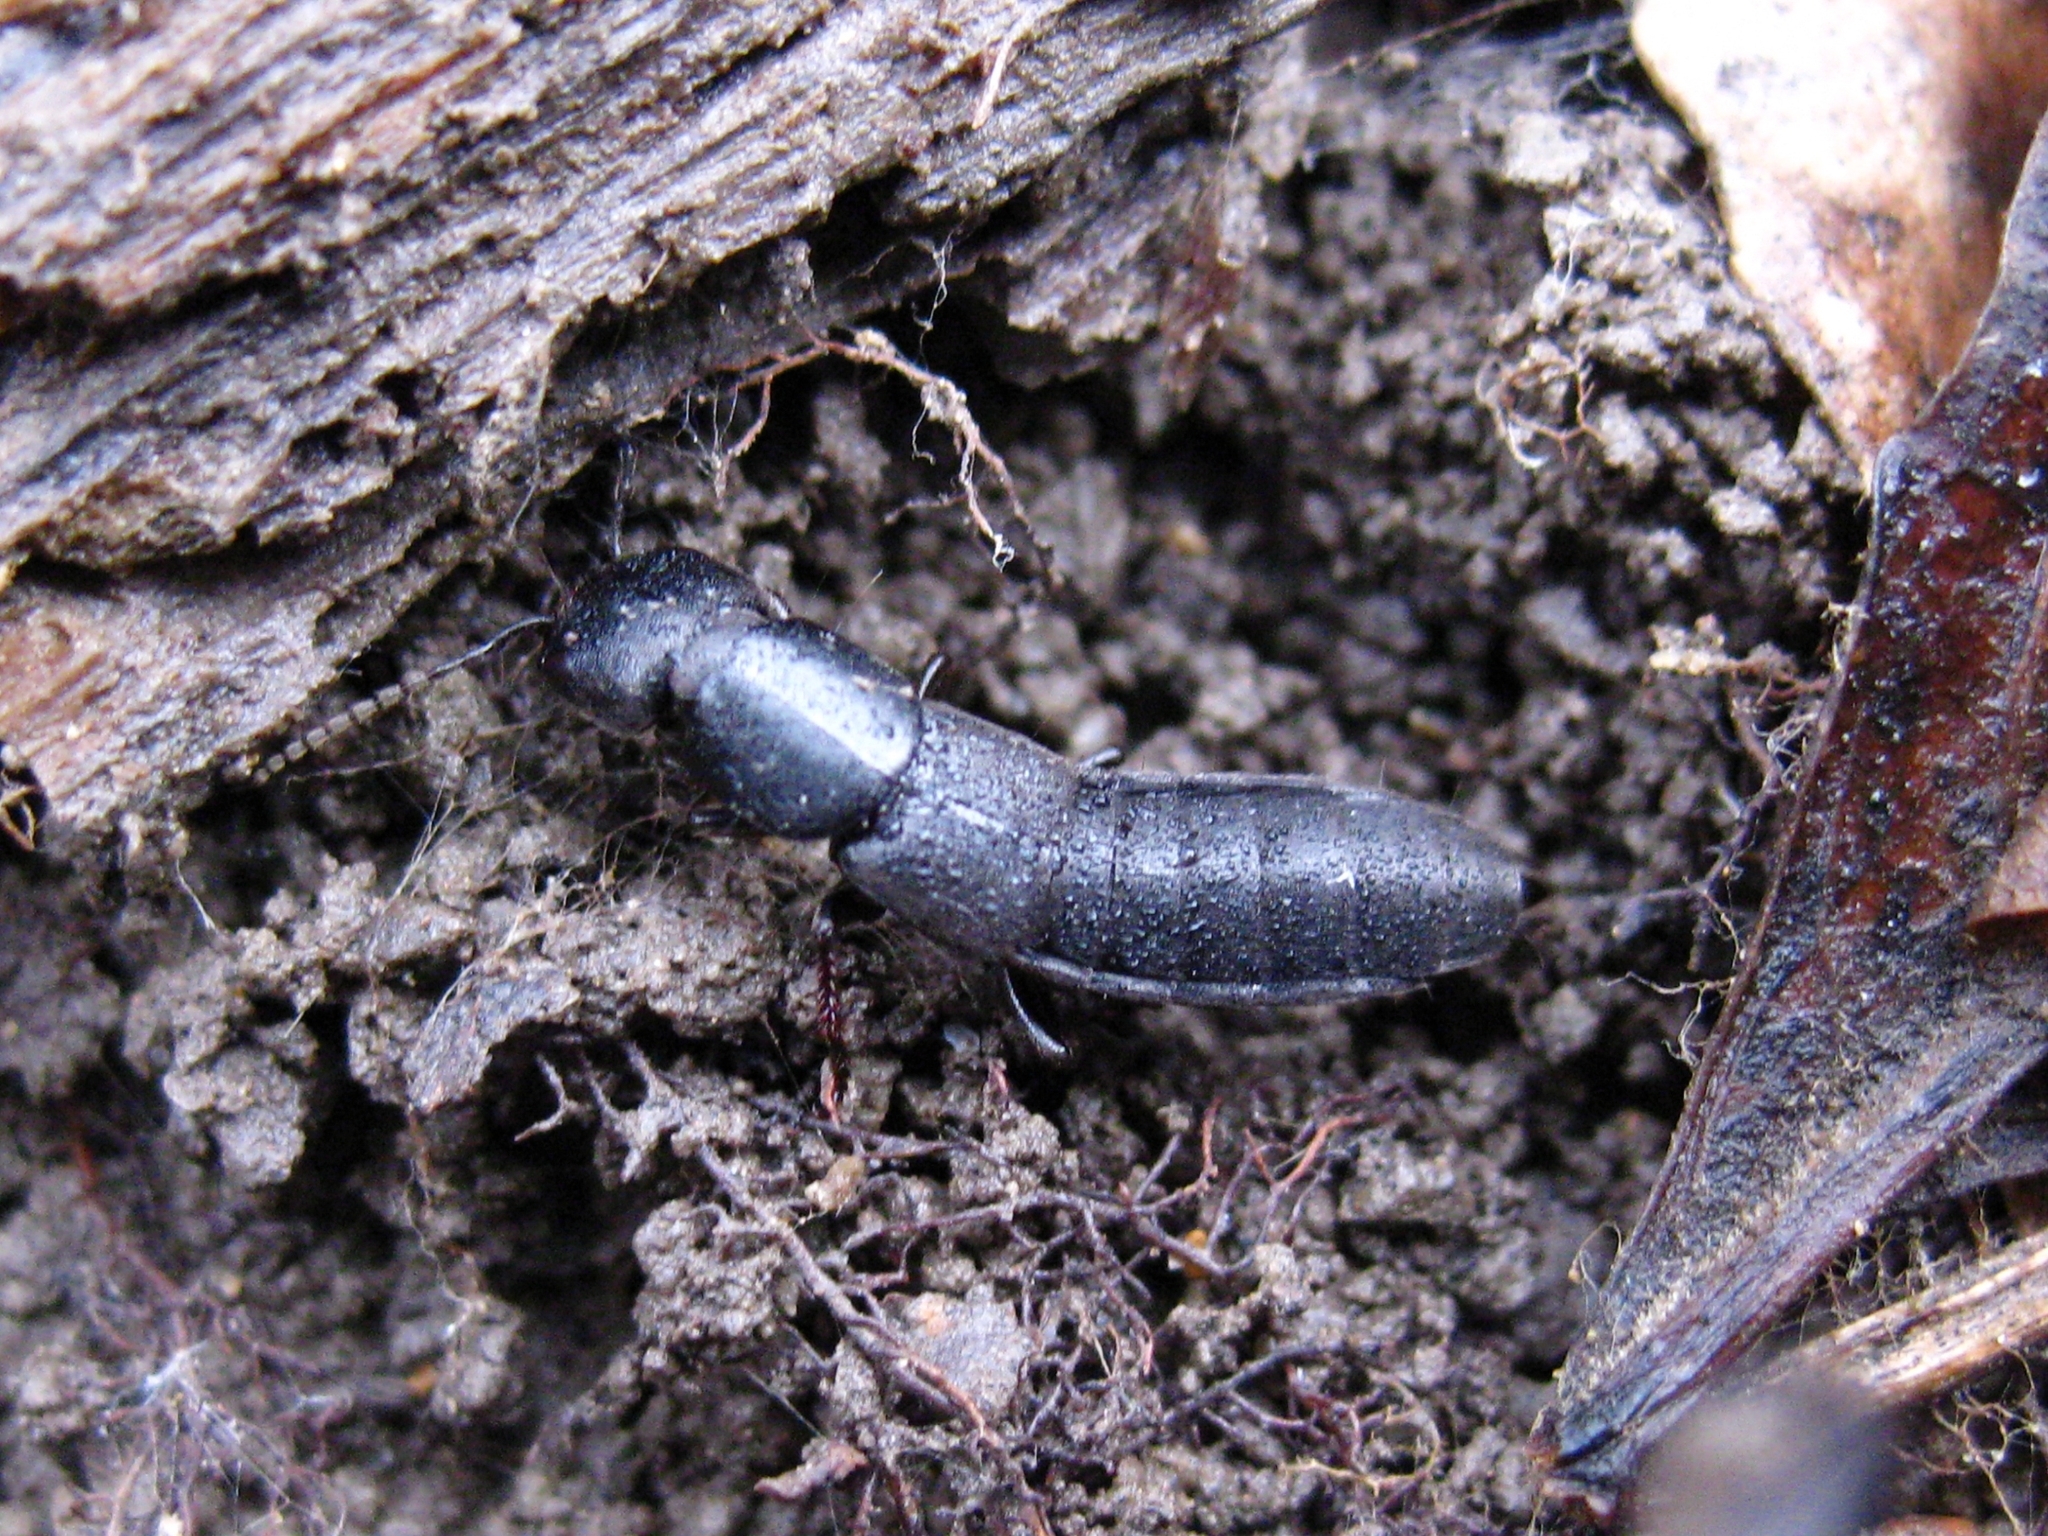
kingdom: Animalia
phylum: Arthropoda
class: Insecta
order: Coleoptera
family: Staphylinidae
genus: Ocypus
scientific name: Ocypus nitens
